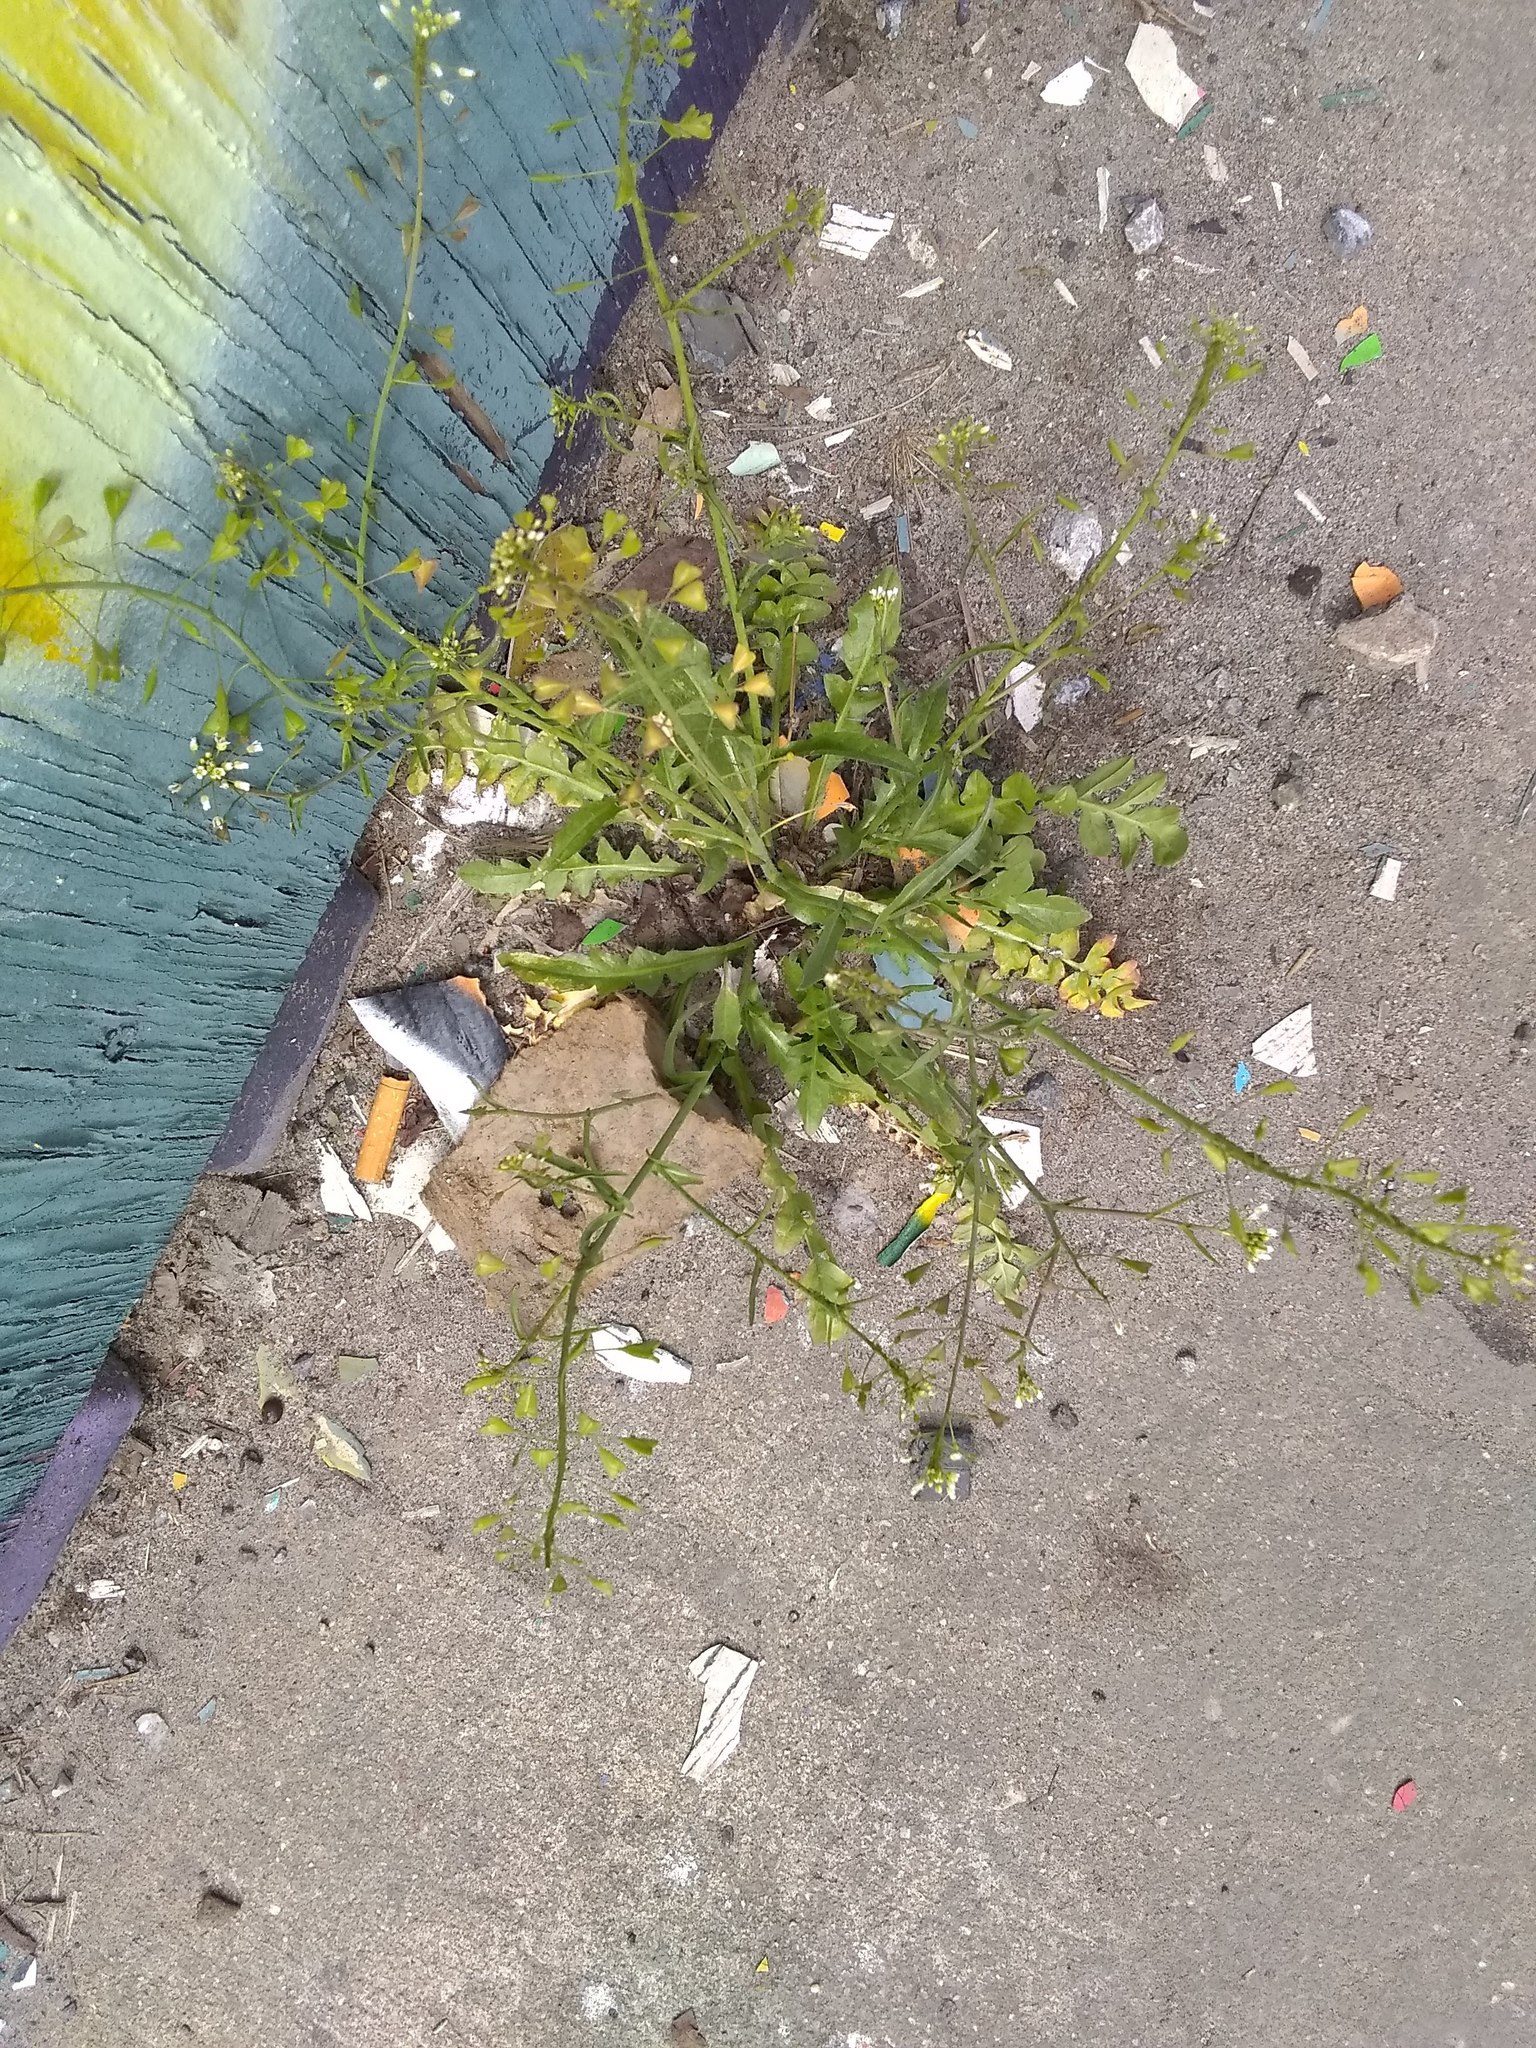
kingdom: Plantae
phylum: Tracheophyta
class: Magnoliopsida
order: Brassicales
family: Brassicaceae
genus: Capsella
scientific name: Capsella bursa-pastoris
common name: Shepherd's purse
